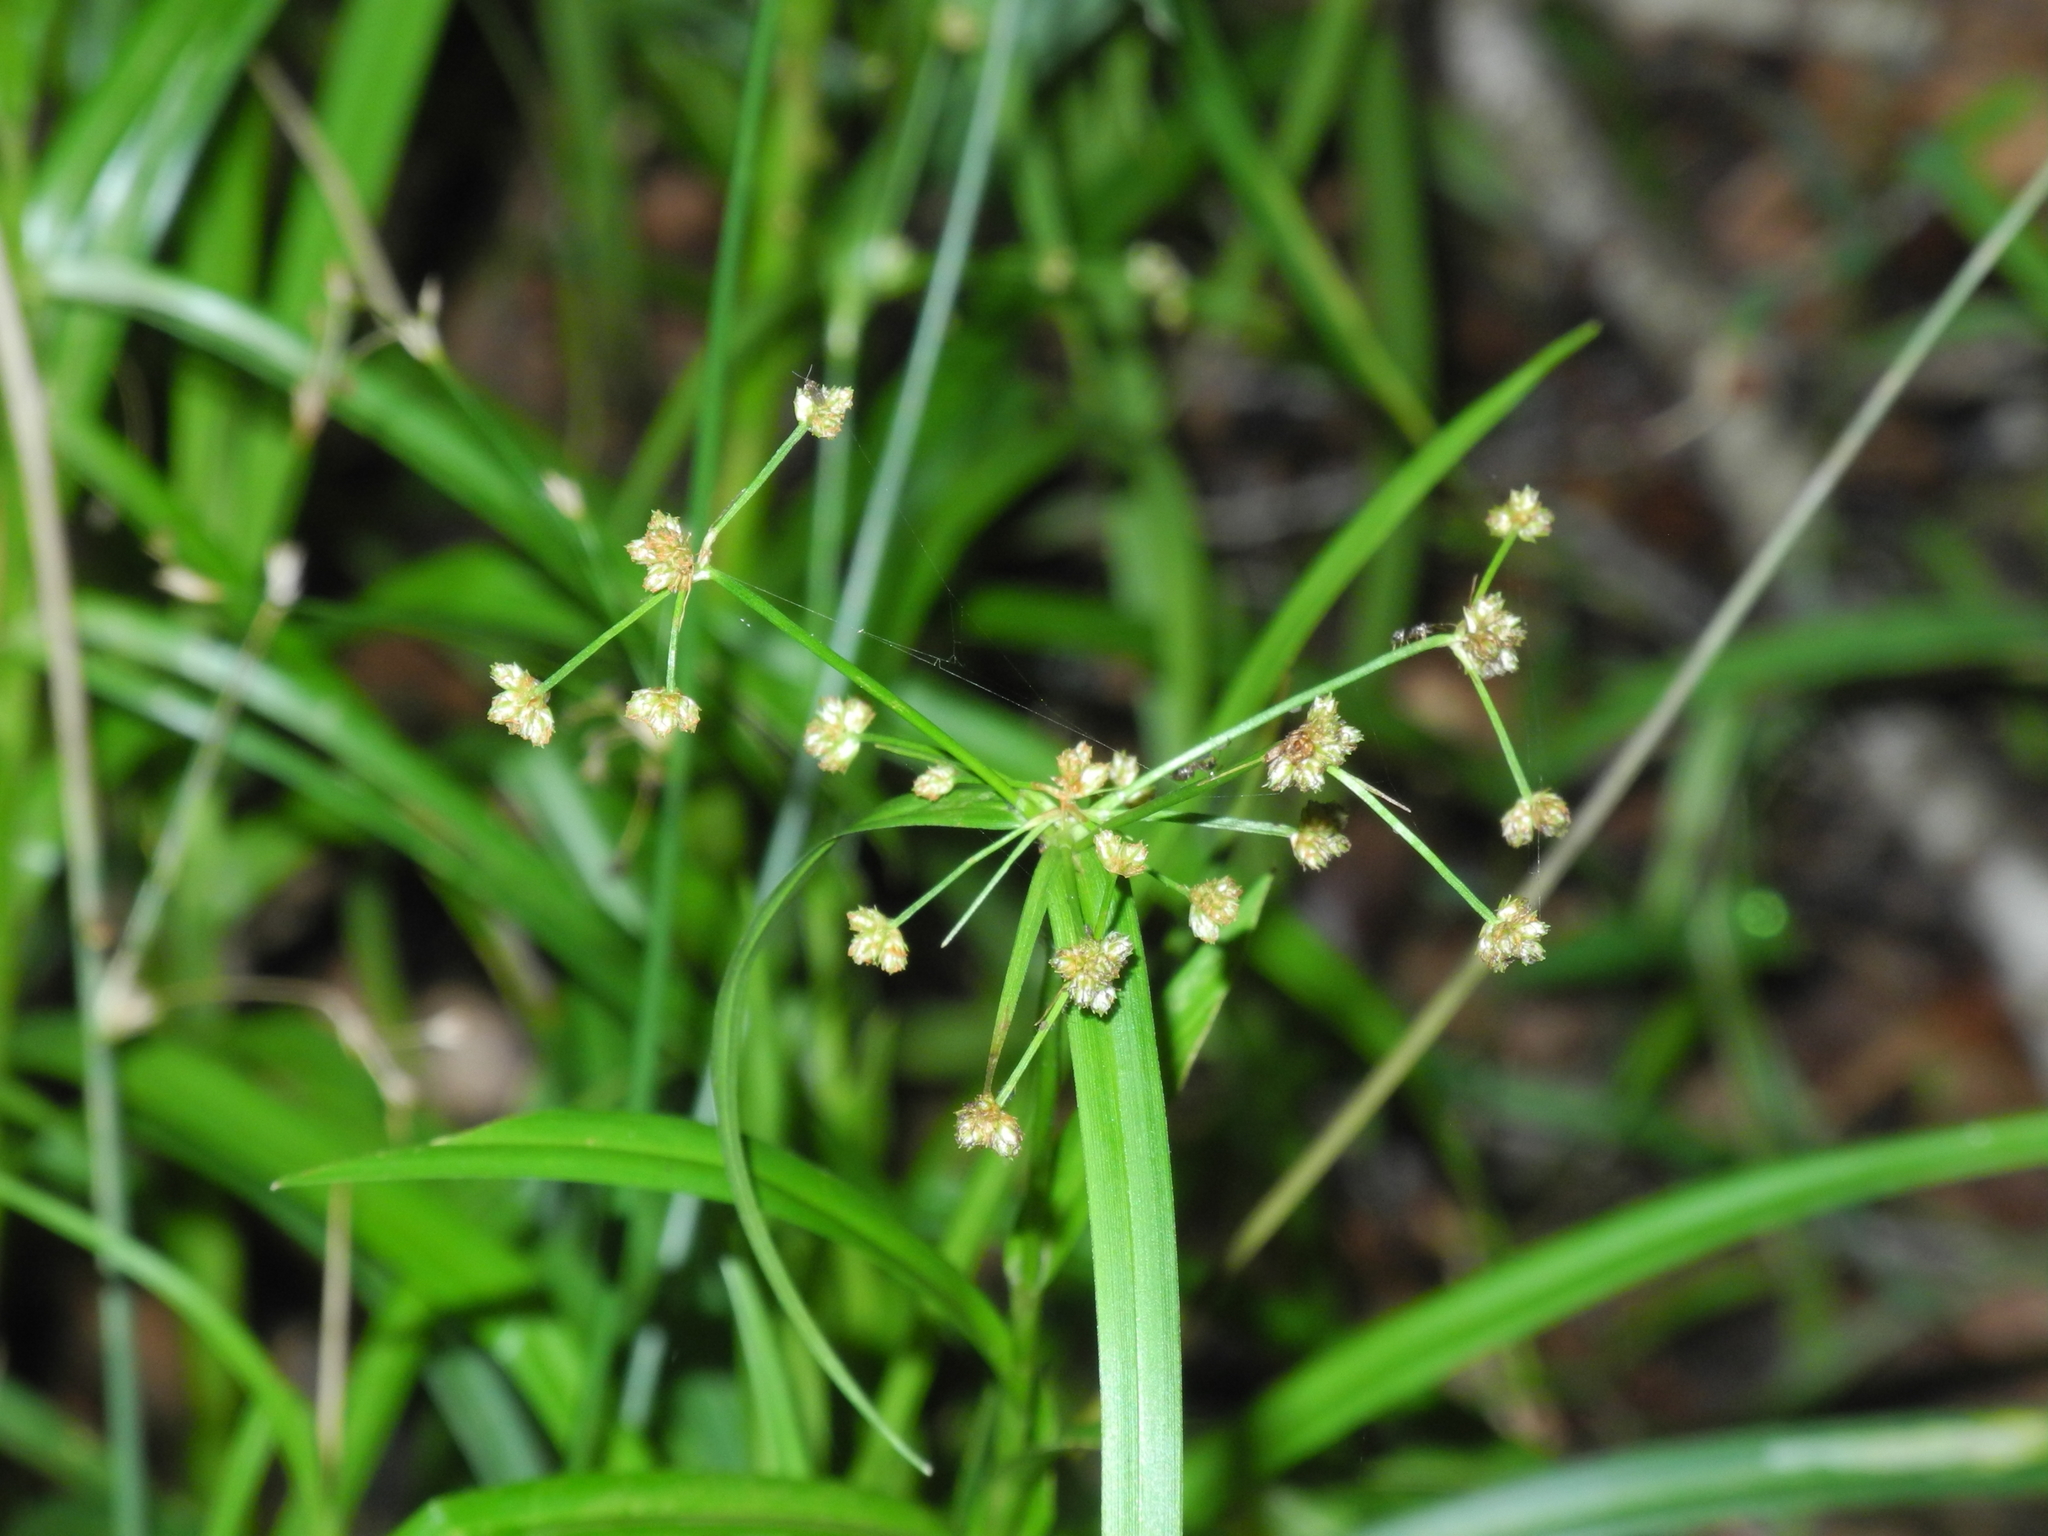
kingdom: Plantae
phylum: Tracheophyta
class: Liliopsida
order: Poales
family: Cyperaceae
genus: Scirpus
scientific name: Scirpus atrovirens
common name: Black bulrush
